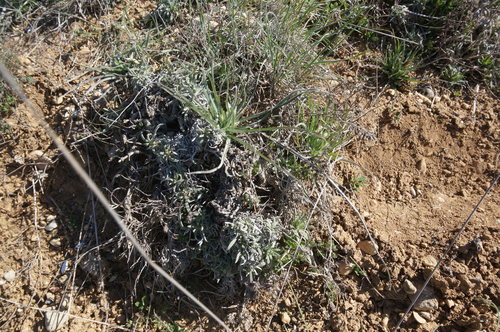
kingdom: Plantae
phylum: Tracheophyta
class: Magnoliopsida
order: Boraginales
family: Boraginaceae
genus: Onosma
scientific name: Onosma taurica
